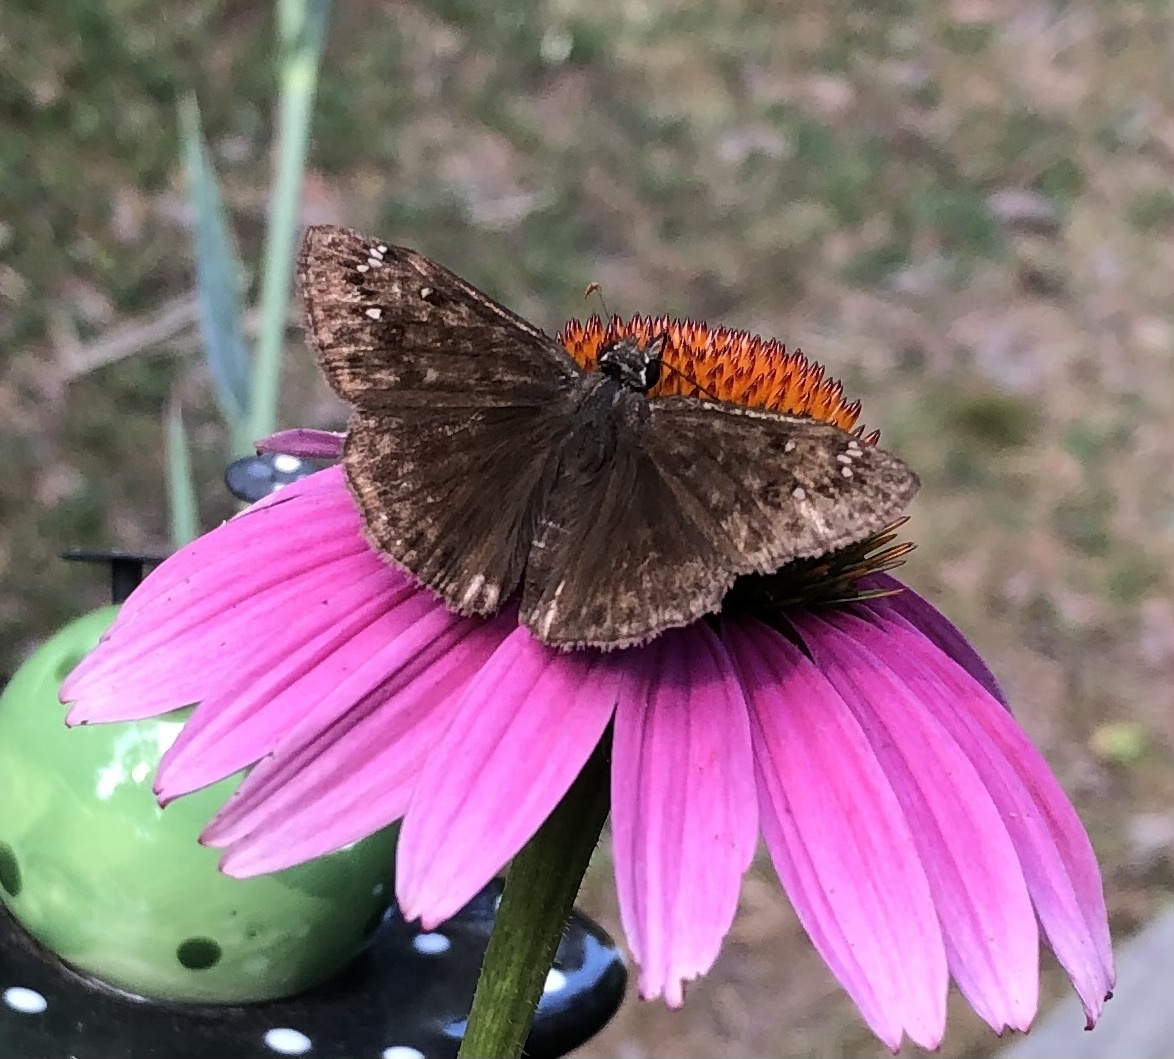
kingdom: Animalia
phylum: Arthropoda
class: Insecta
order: Lepidoptera
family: Hesperiidae
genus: Erynnis
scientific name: Erynnis horatius
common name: Horace's duskywing
